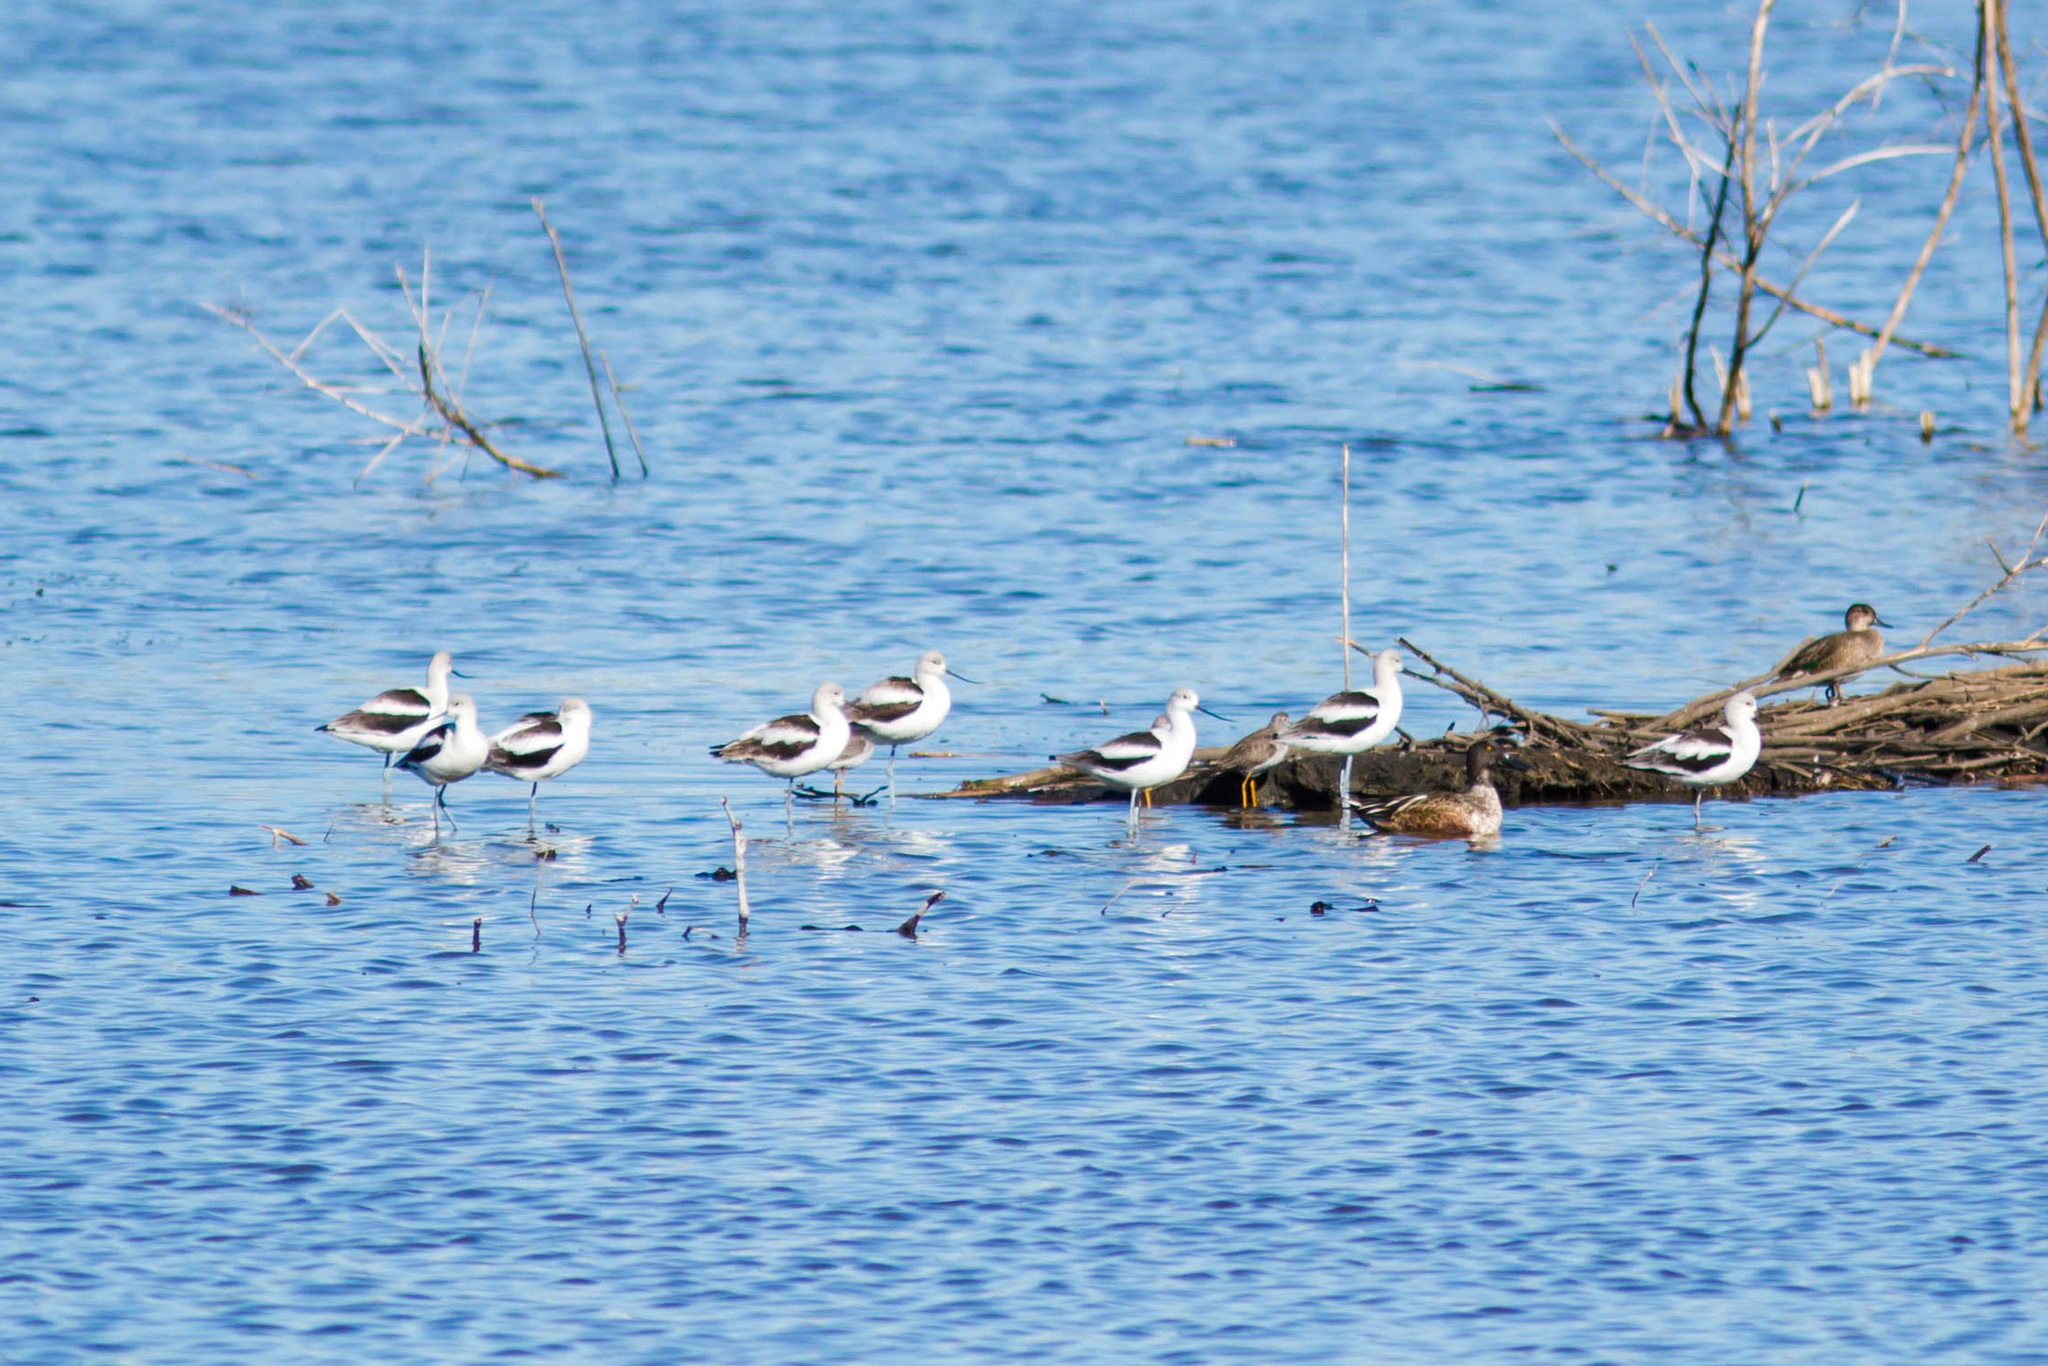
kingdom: Animalia
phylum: Chordata
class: Aves
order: Charadriiformes
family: Recurvirostridae
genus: Recurvirostra
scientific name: Recurvirostra americana
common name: American avocet
